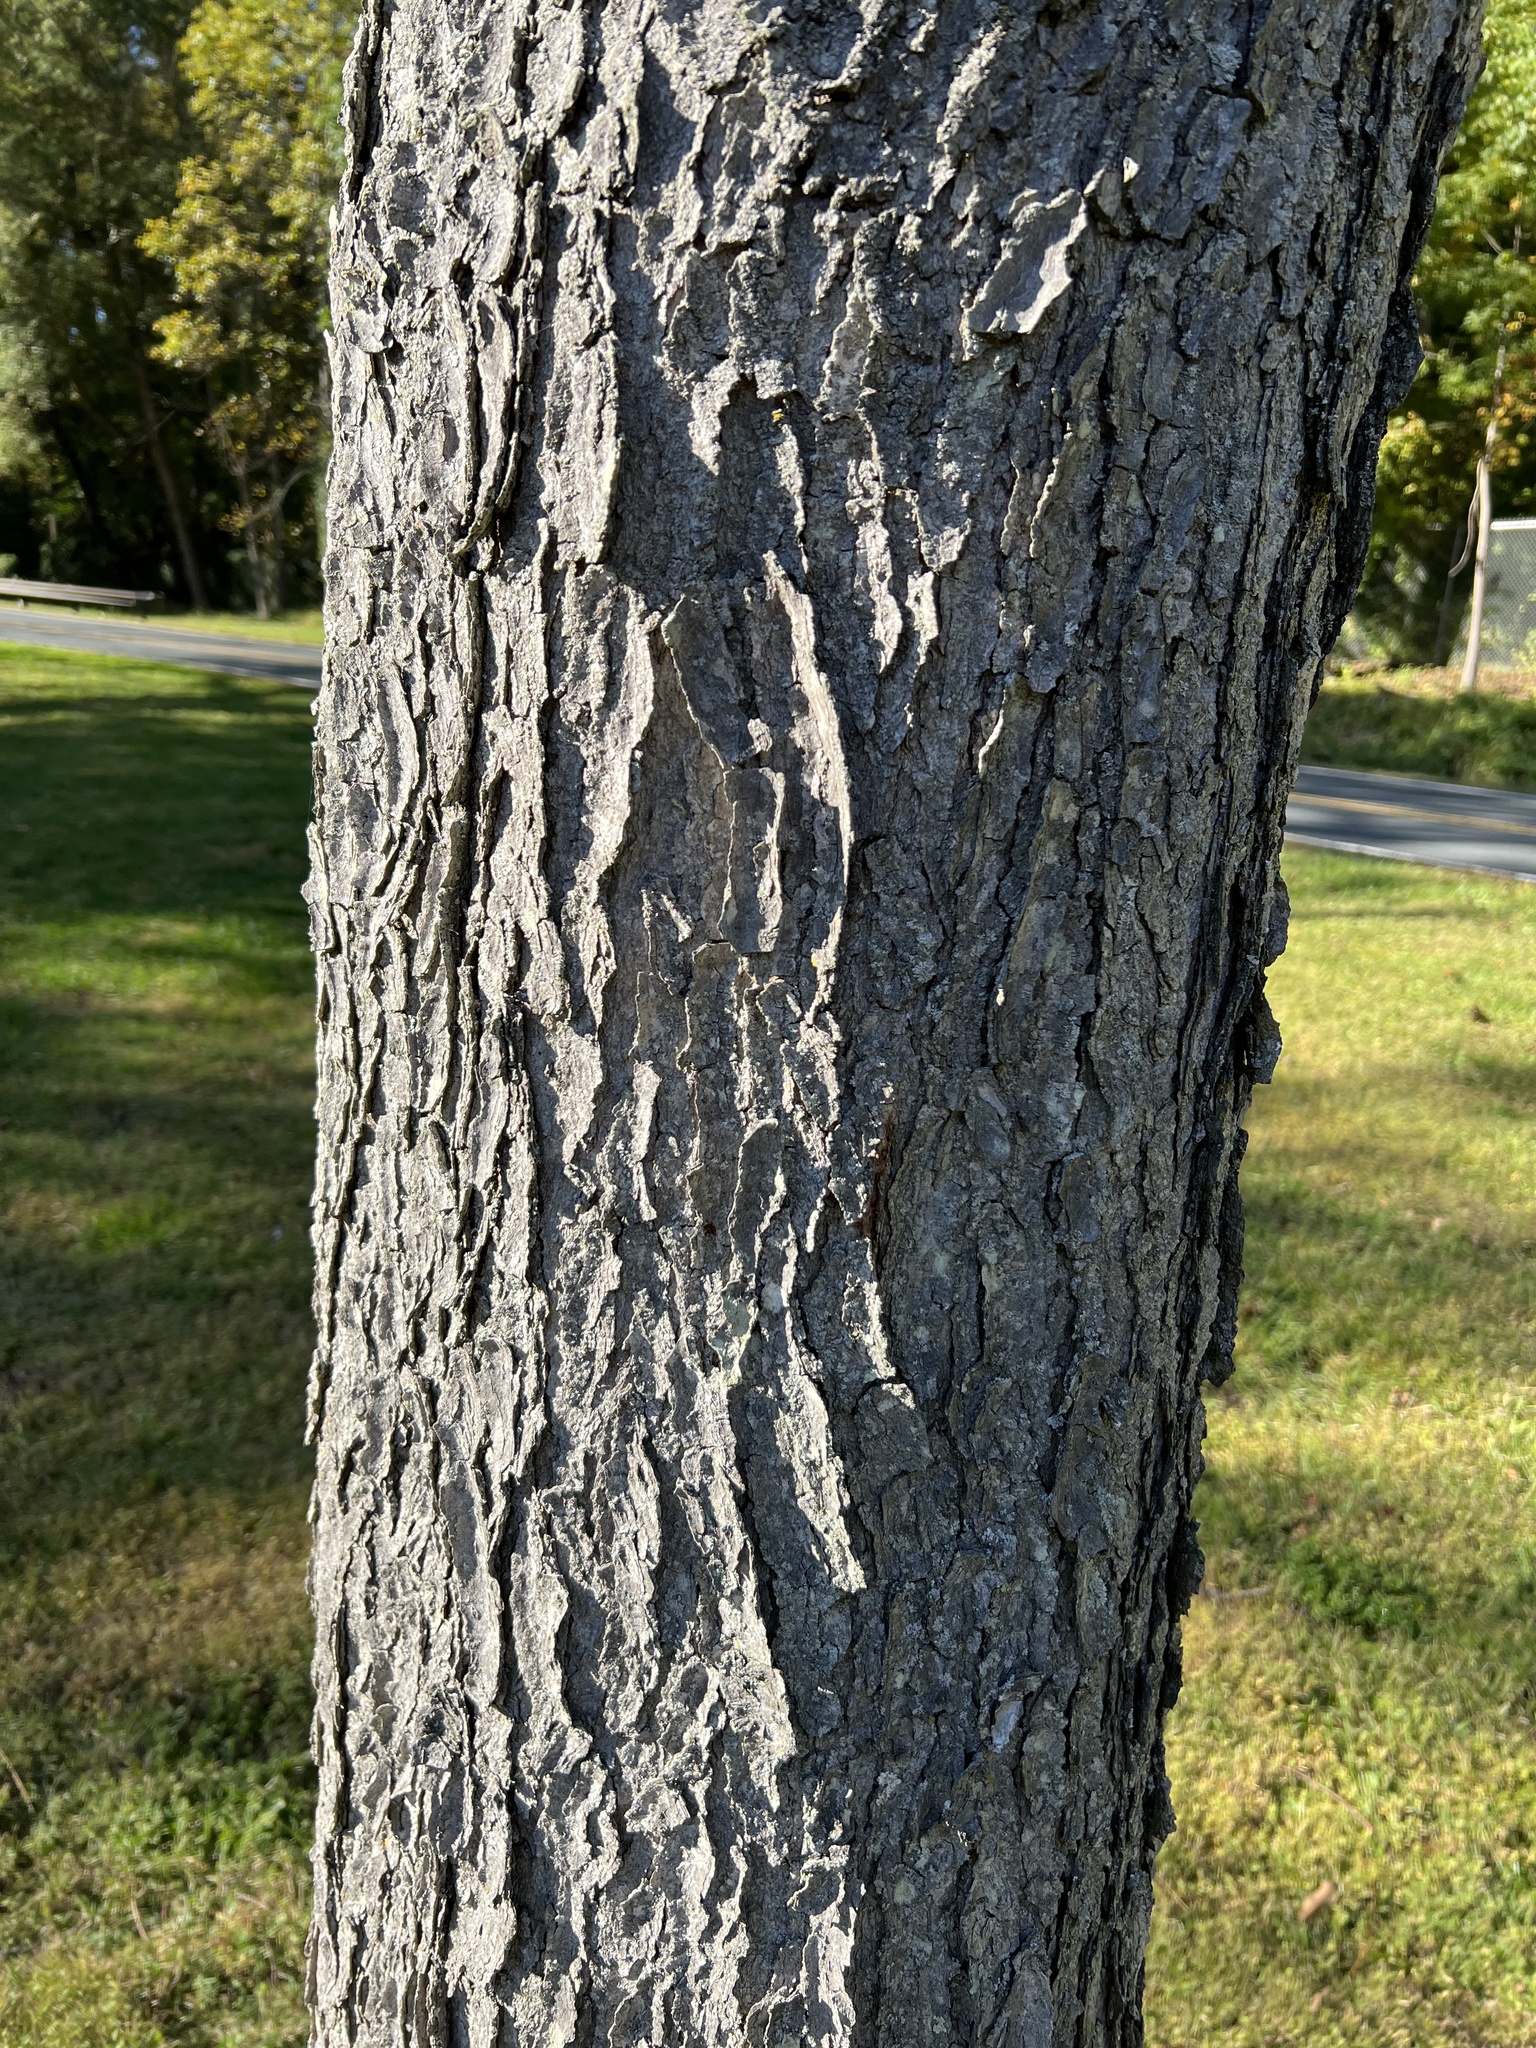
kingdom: Plantae
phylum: Tracheophyta
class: Magnoliopsida
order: Fabales
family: Fabaceae
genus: Gymnocladus
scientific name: Gymnocladus dioicus
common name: Kentucky coffee-tree
